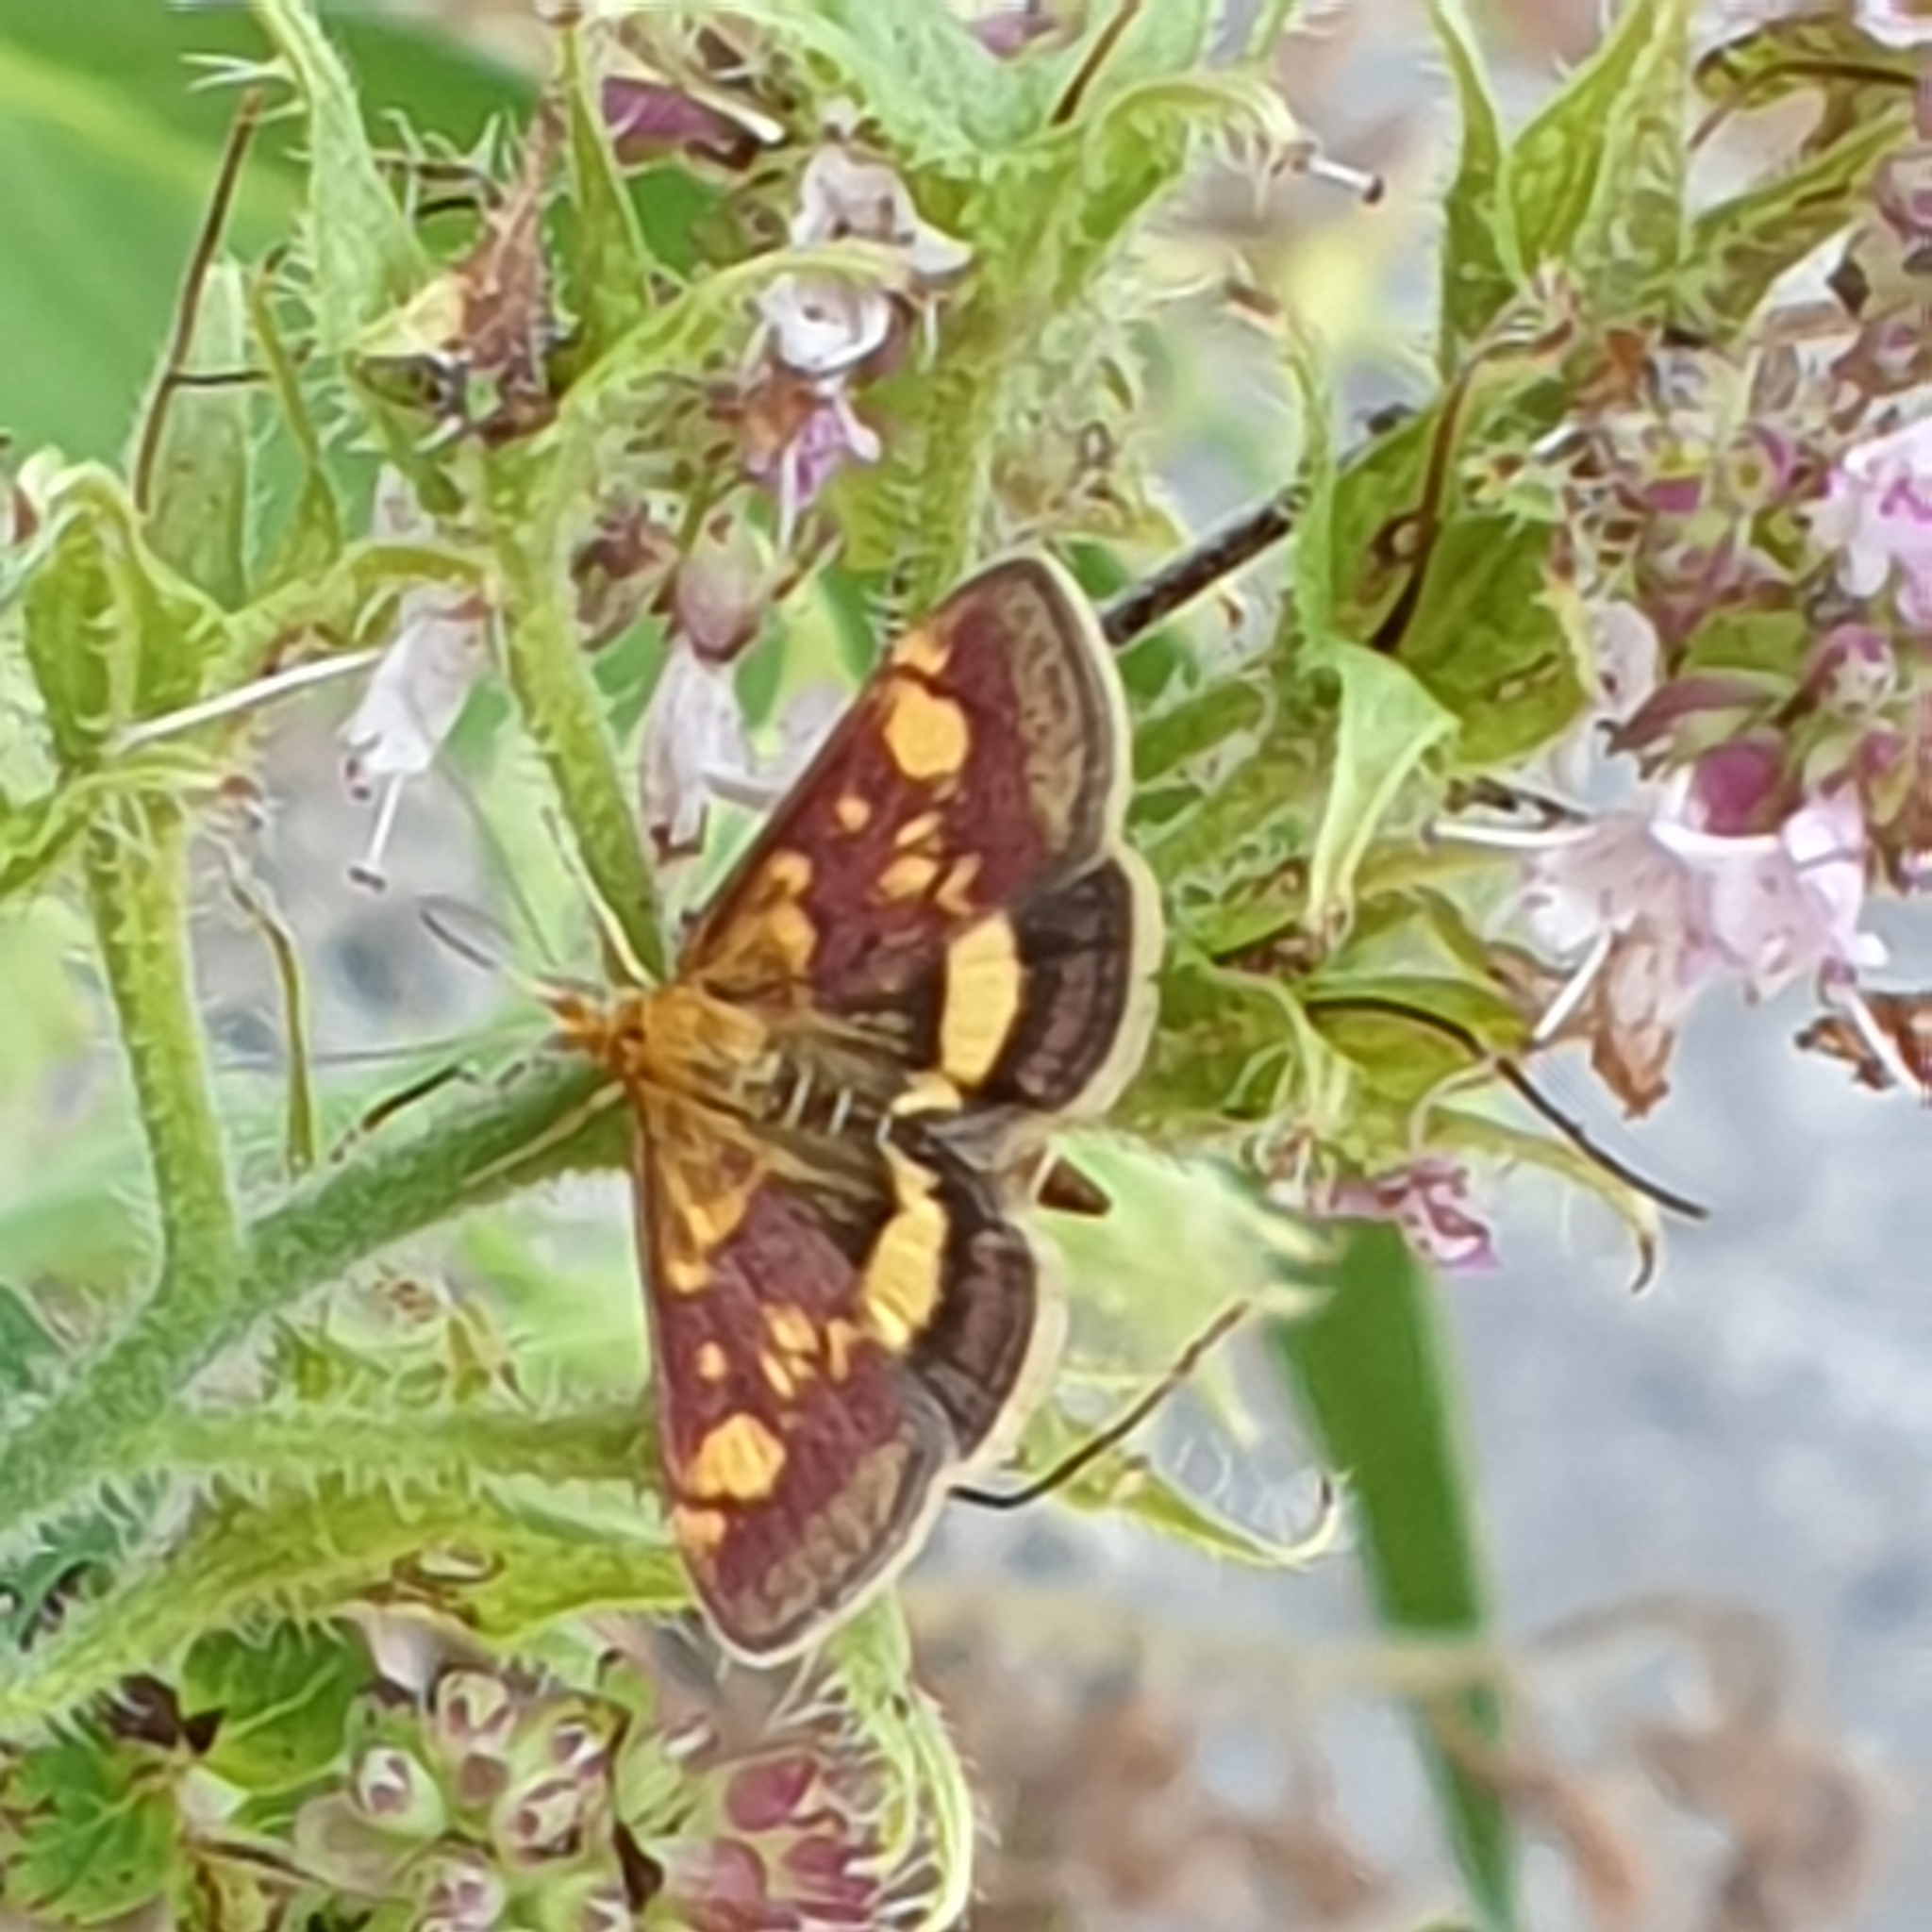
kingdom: Animalia
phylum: Arthropoda
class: Insecta
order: Lepidoptera
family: Crambidae
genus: Pyrausta
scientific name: Pyrausta aurata
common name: Small purple & gold
